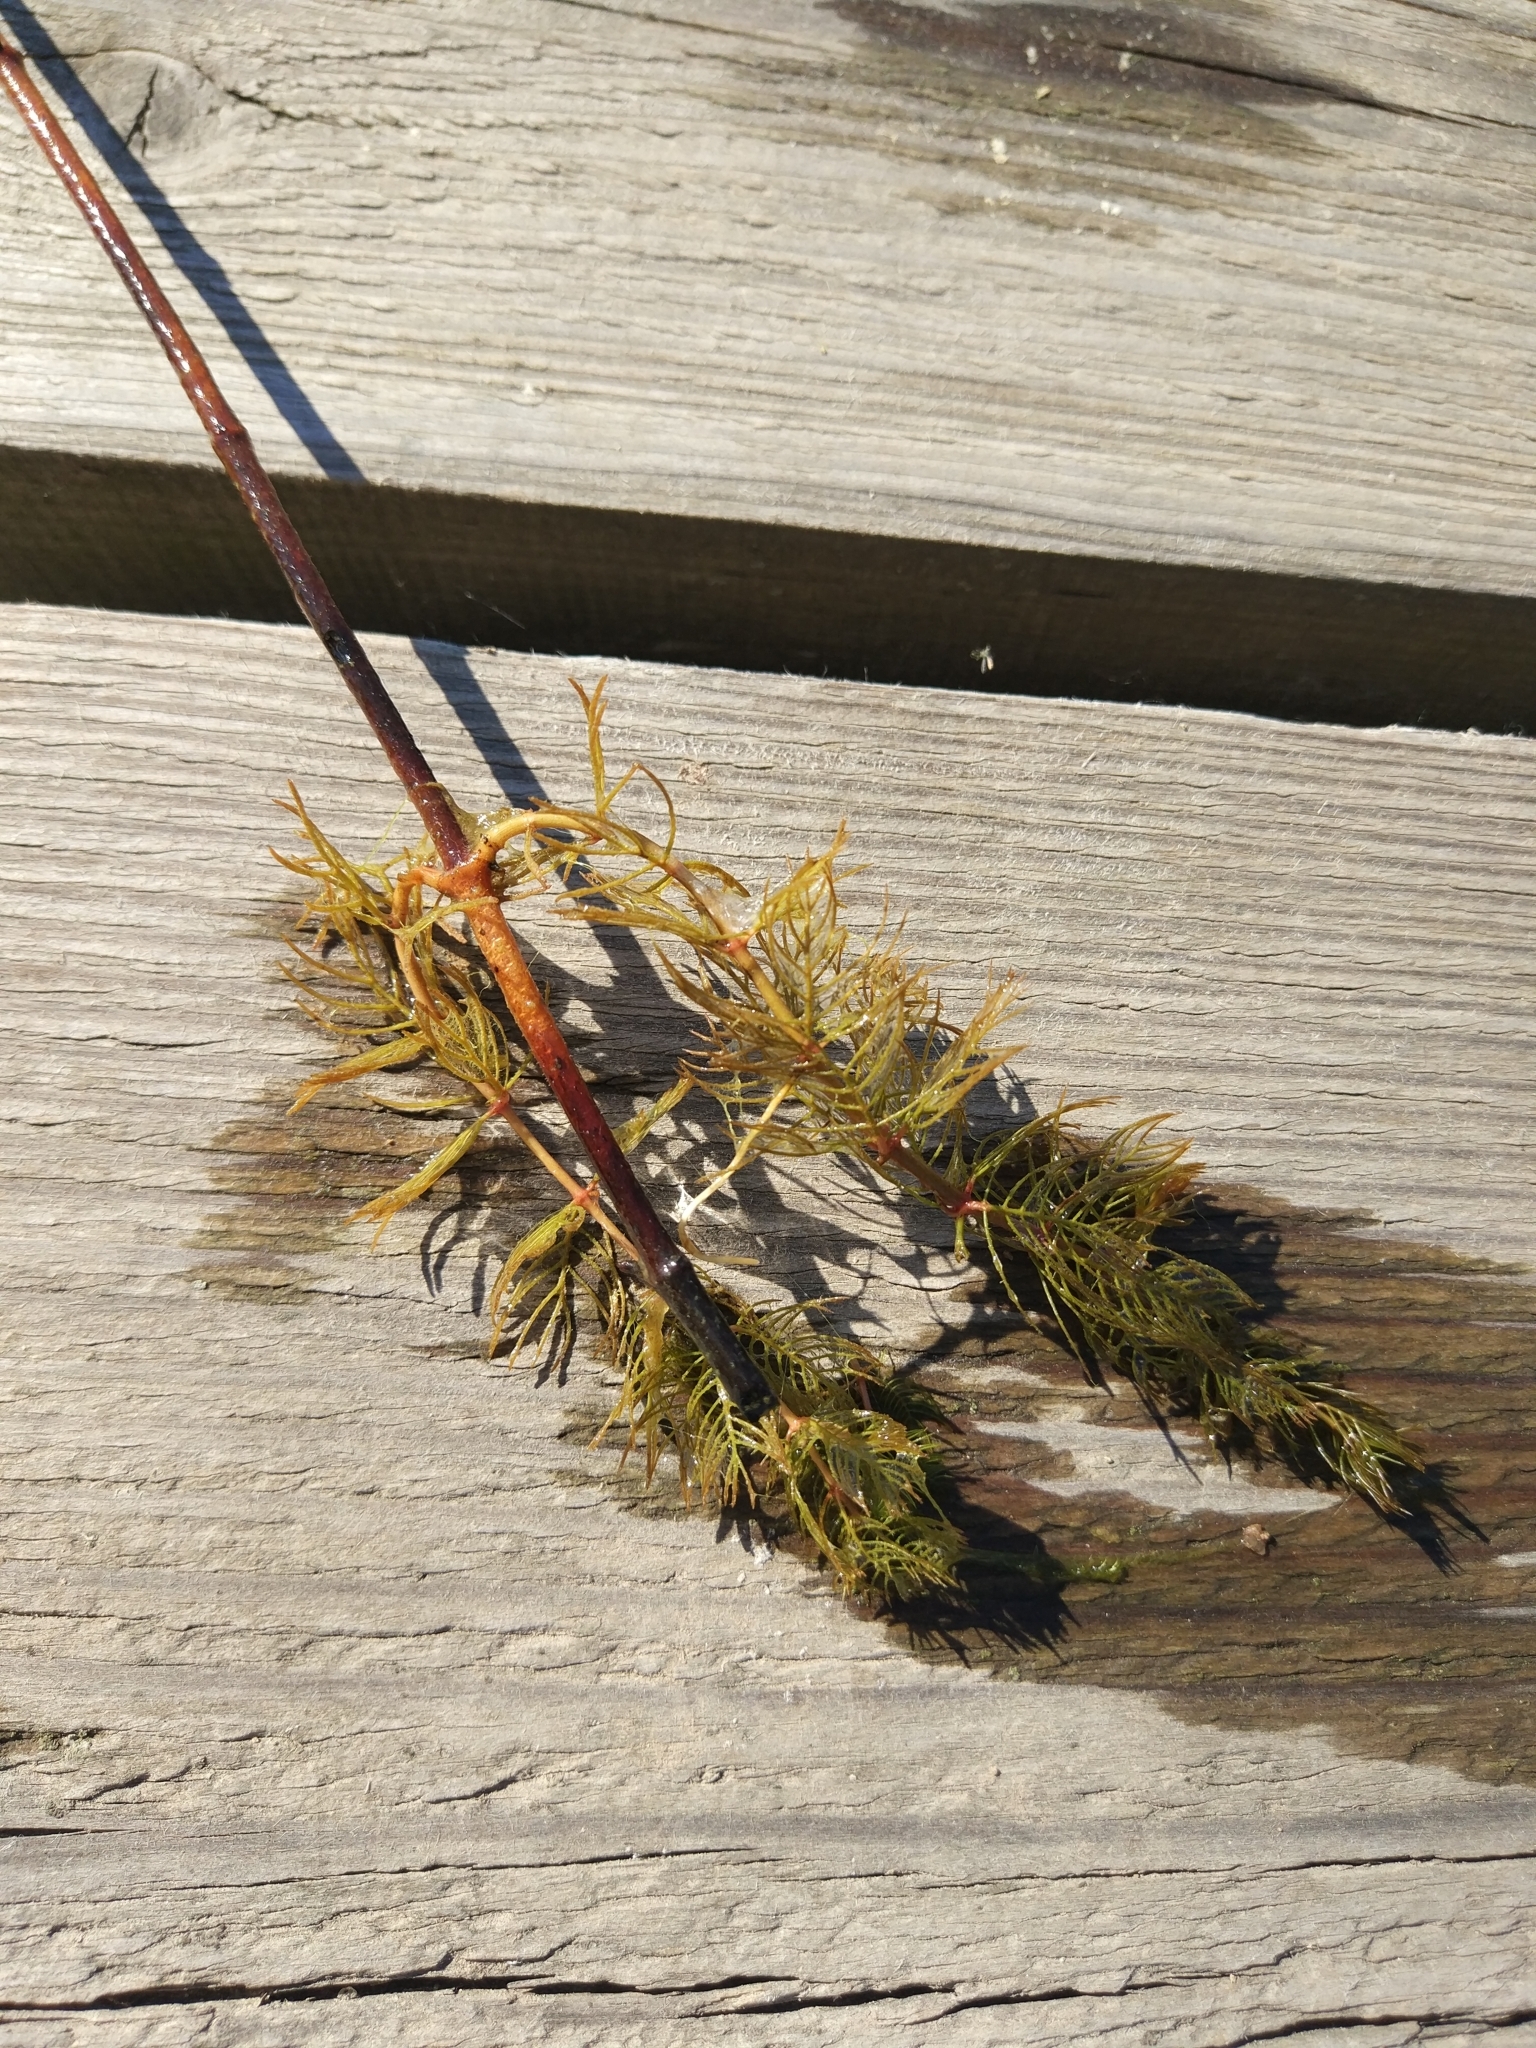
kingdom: Plantae
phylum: Tracheophyta
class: Magnoliopsida
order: Saxifragales
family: Haloragaceae
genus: Myriophyllum
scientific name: Myriophyllum sibiricum
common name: Siberian water-milfoil
